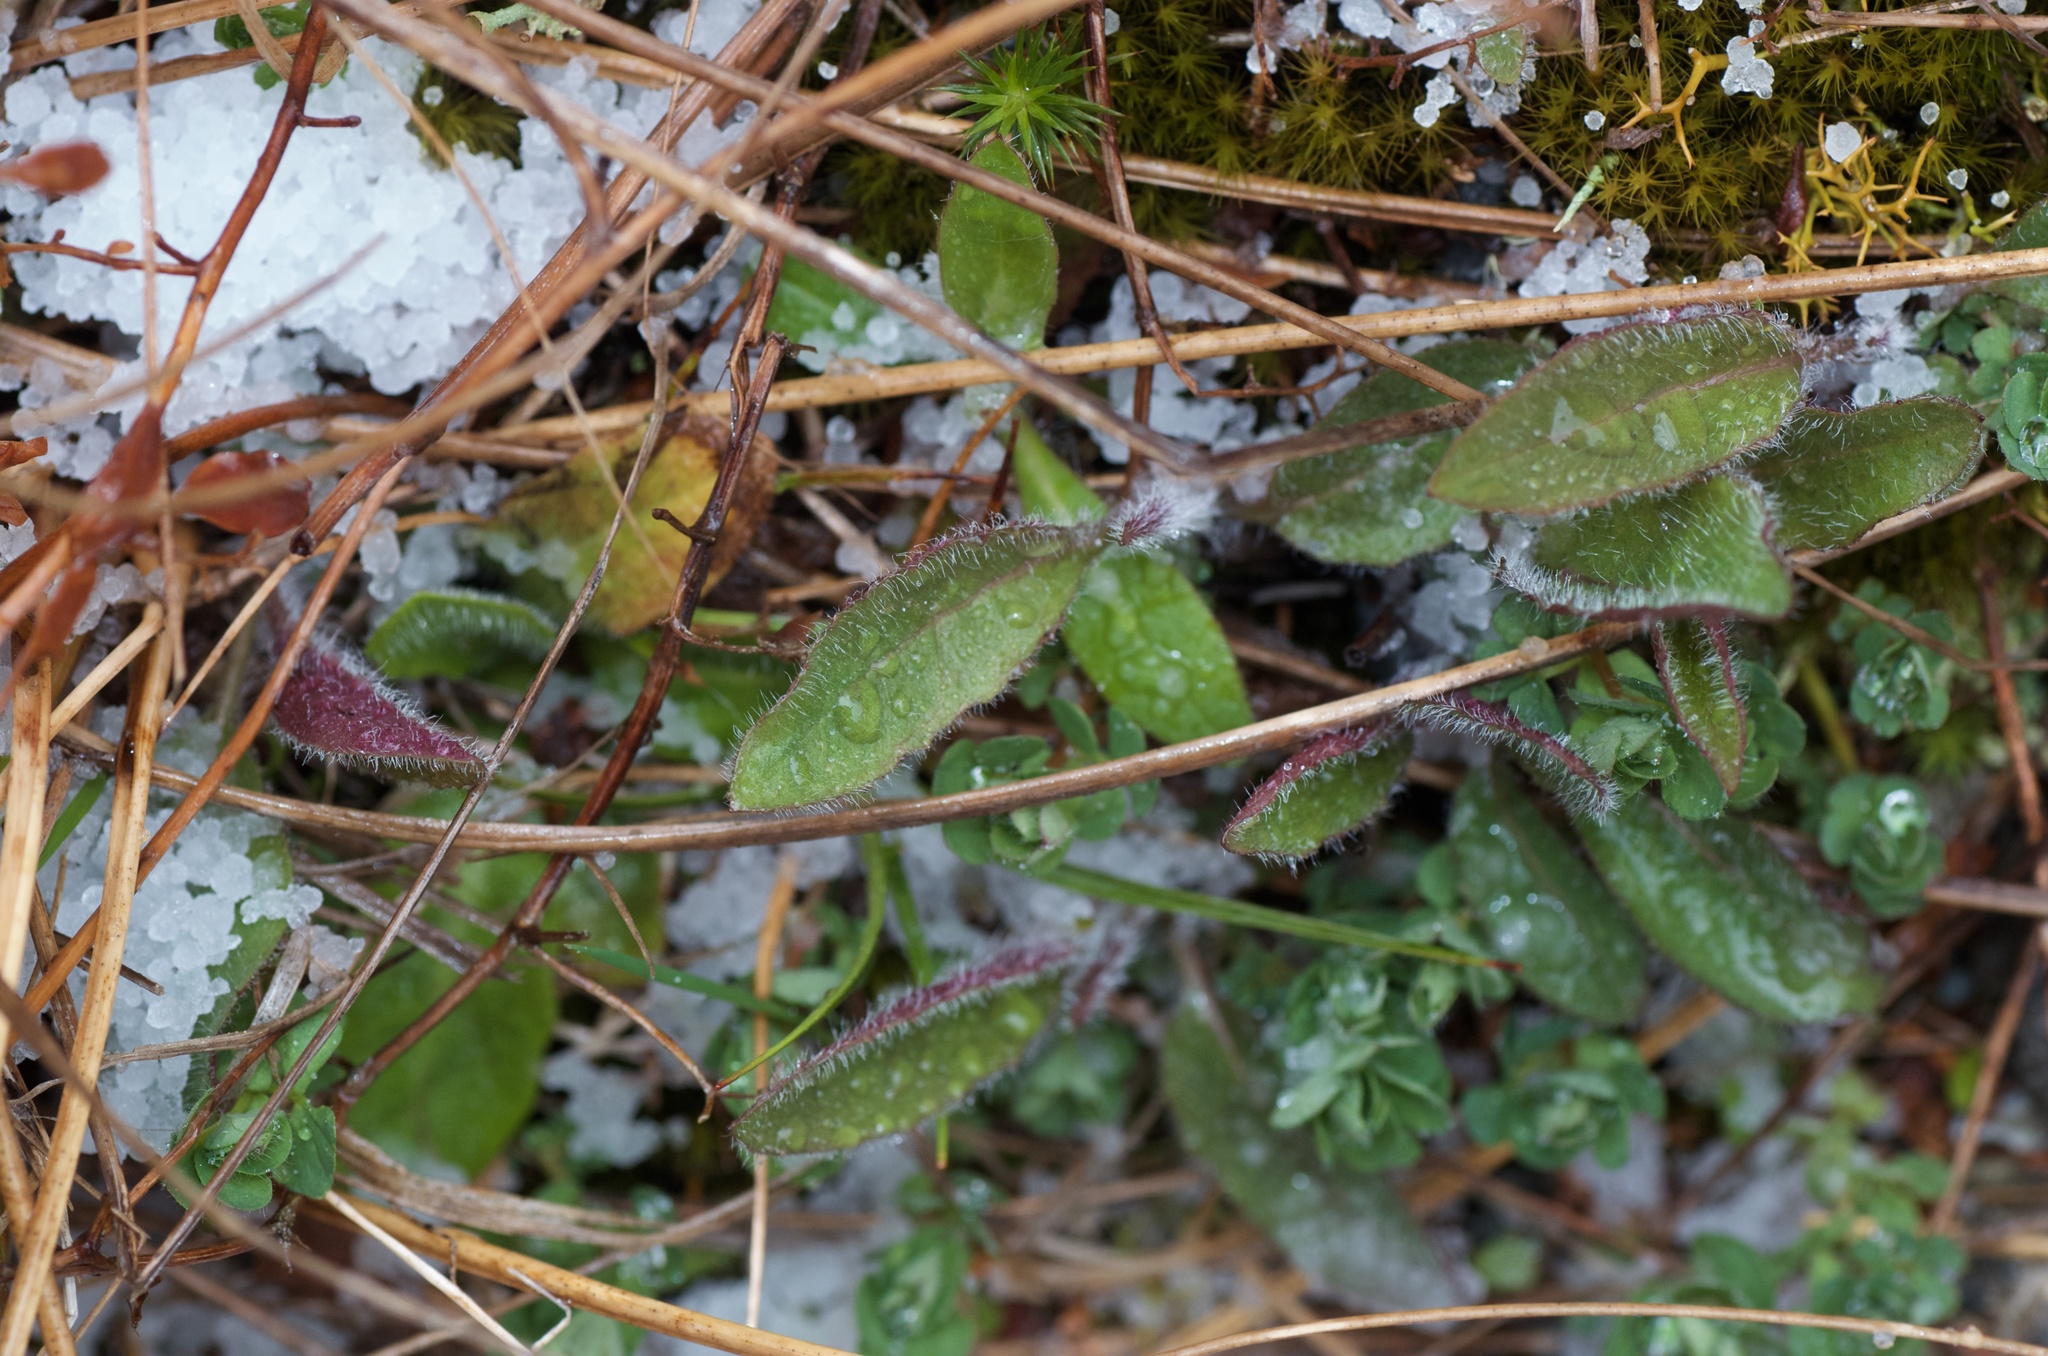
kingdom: Plantae
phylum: Tracheophyta
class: Magnoliopsida
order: Asterales
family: Asteraceae
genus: Hieracium
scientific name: Hieracium lepidulum
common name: Irregular-toothed hawkweed
